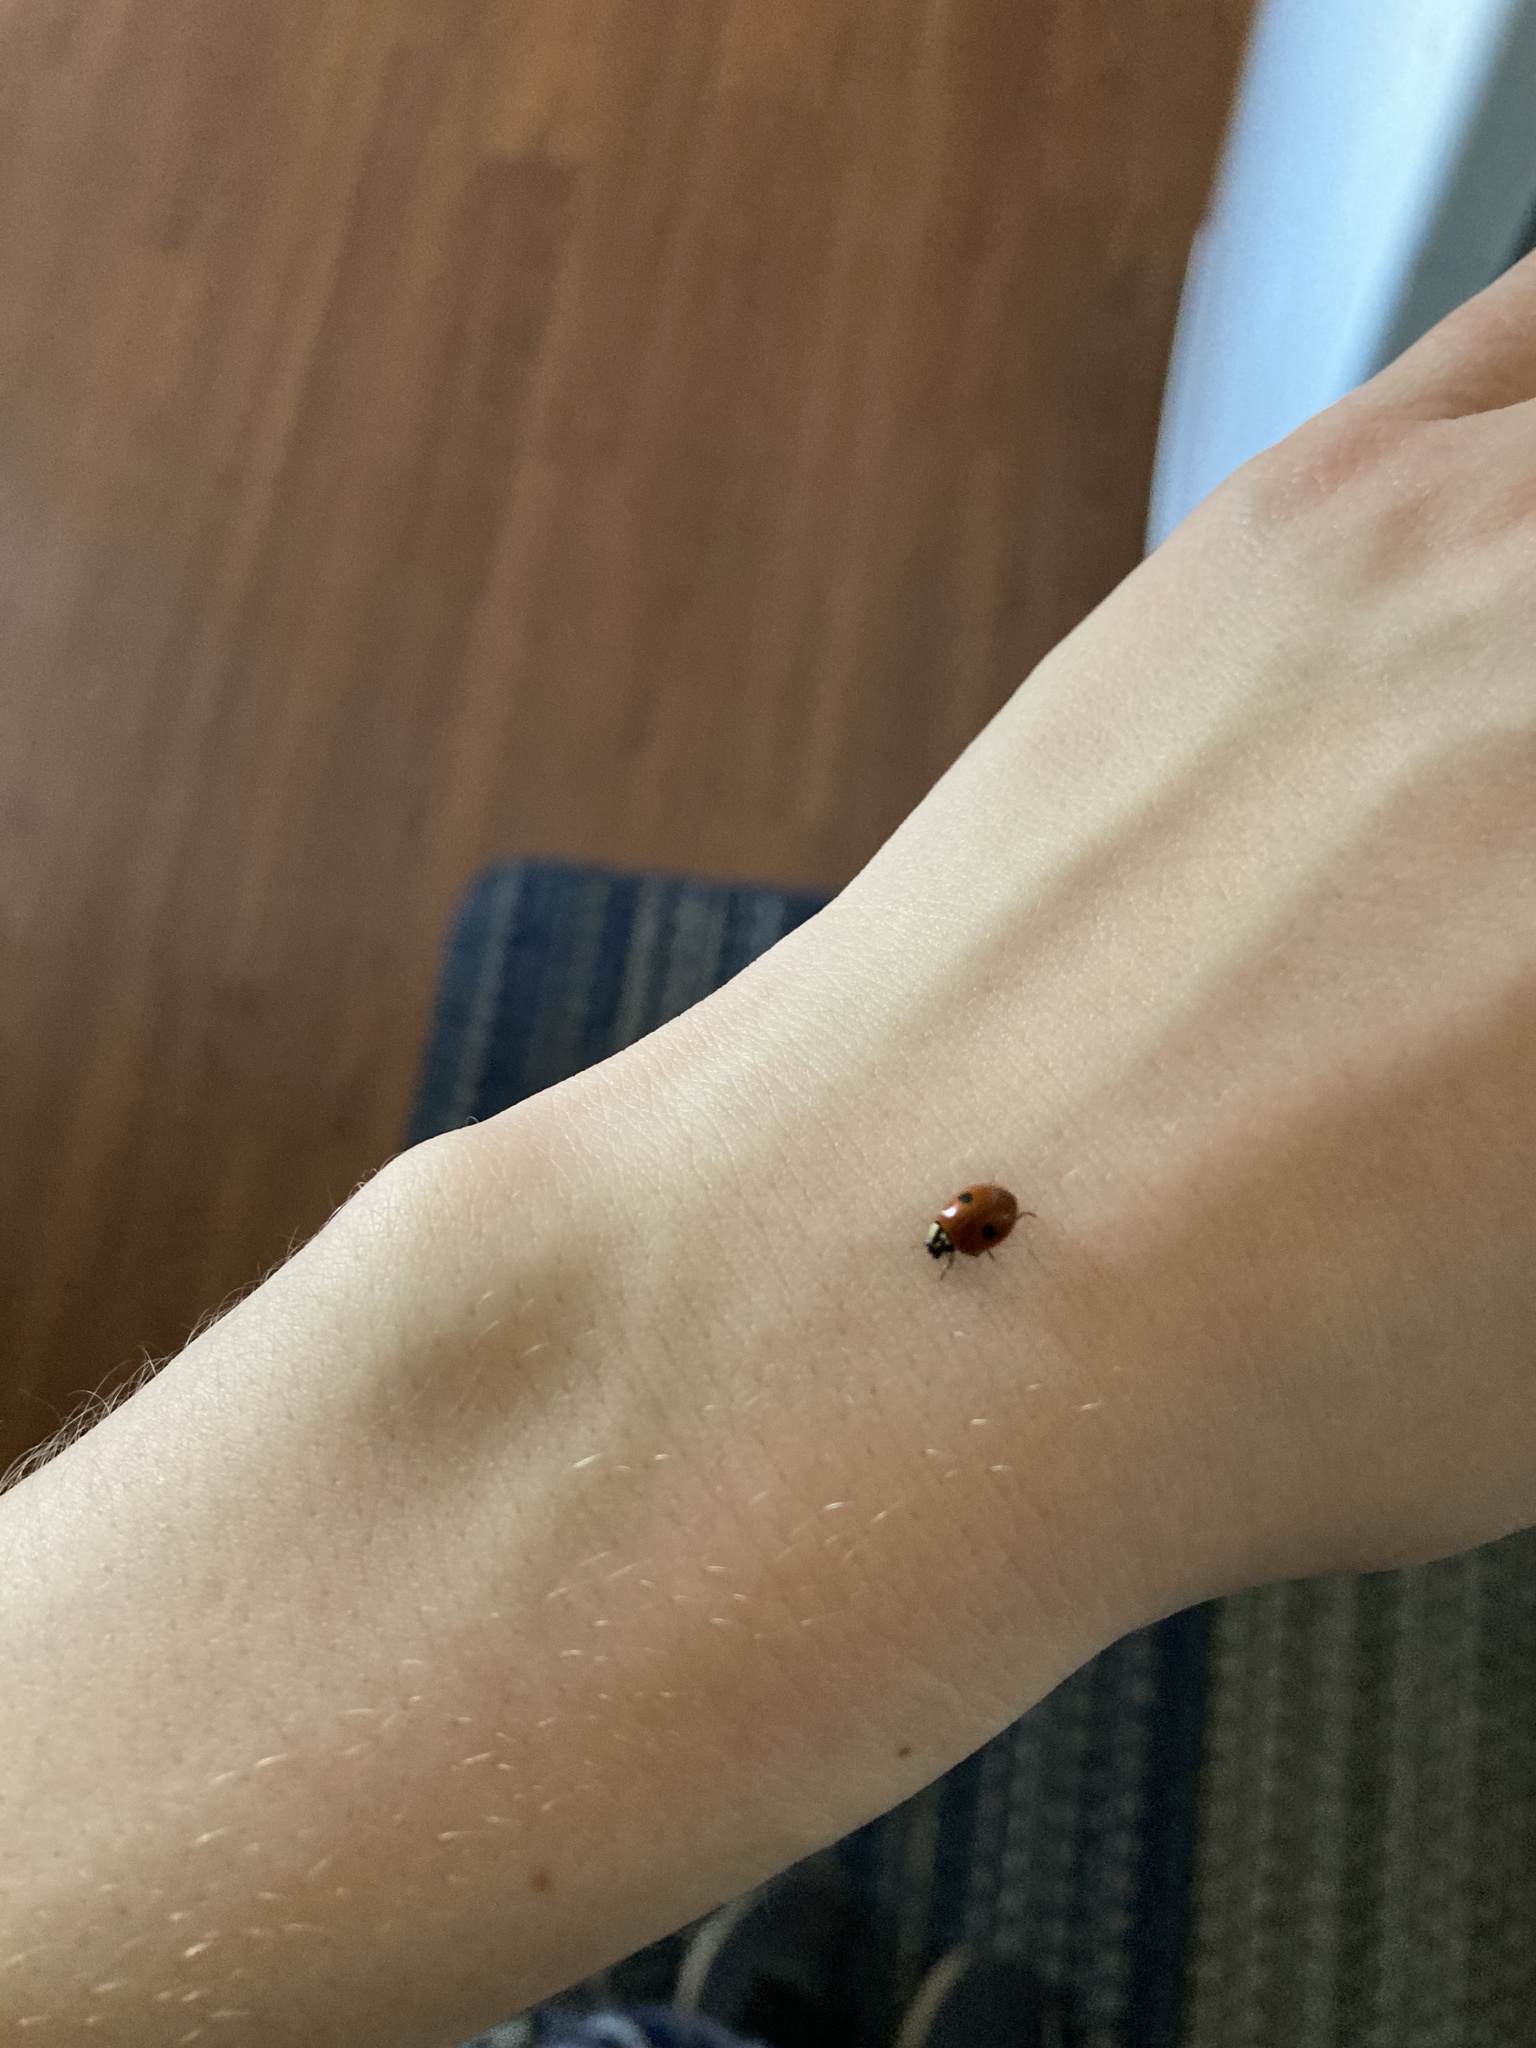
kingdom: Animalia
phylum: Arthropoda
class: Insecta
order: Coleoptera
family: Coccinellidae
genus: Adalia
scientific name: Adalia bipunctata
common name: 2-spot ladybird
